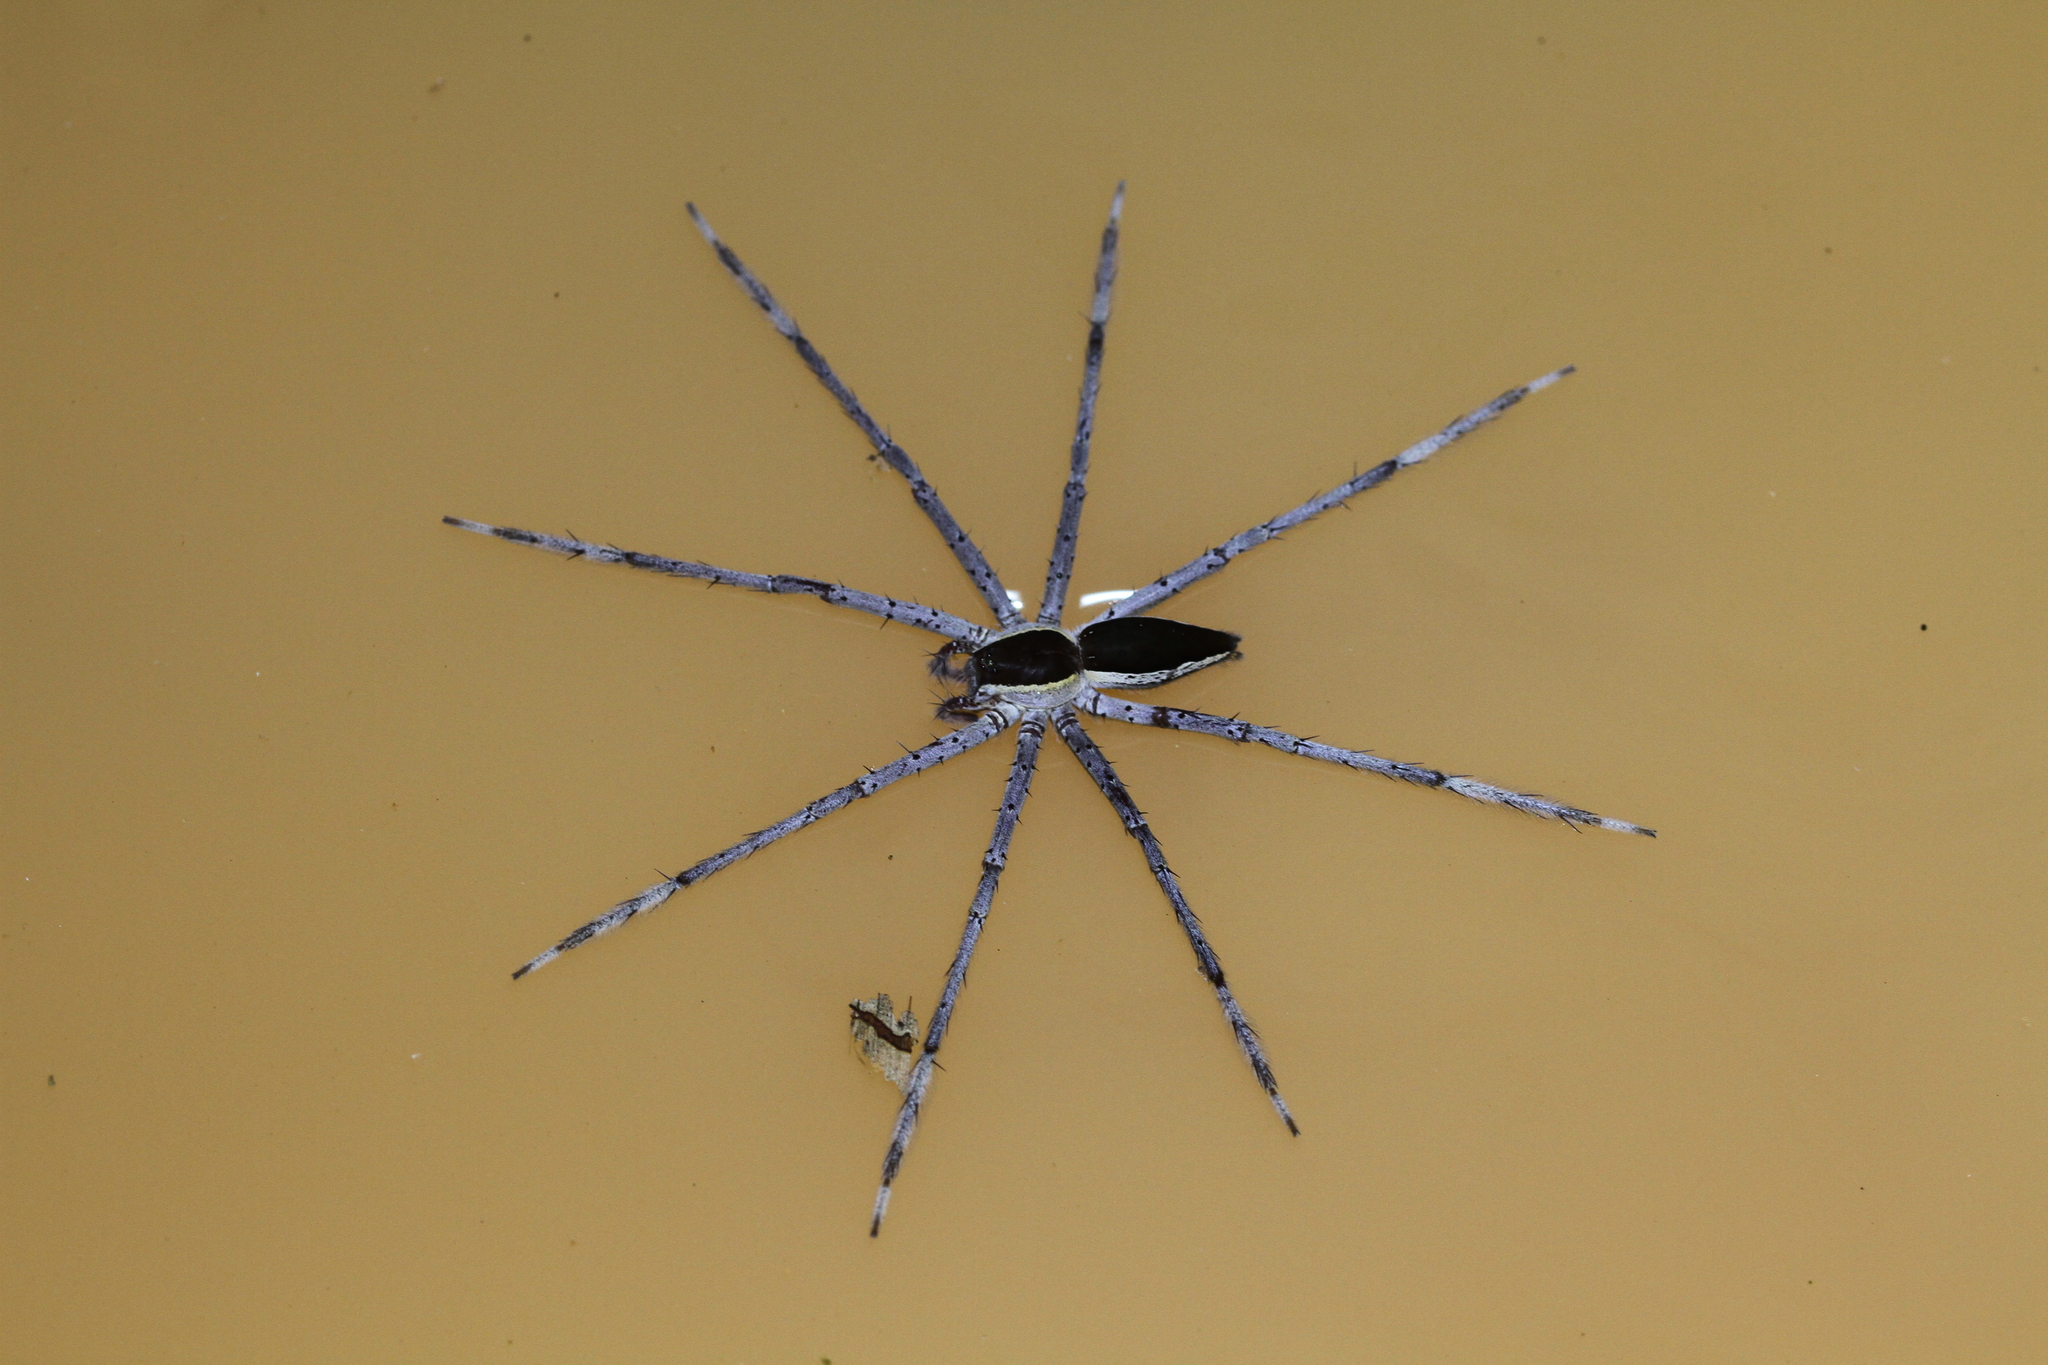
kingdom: Animalia
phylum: Arthropoda
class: Arachnida
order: Araneae
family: Pisauridae
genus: Nilus
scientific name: Nilus albocinctus
